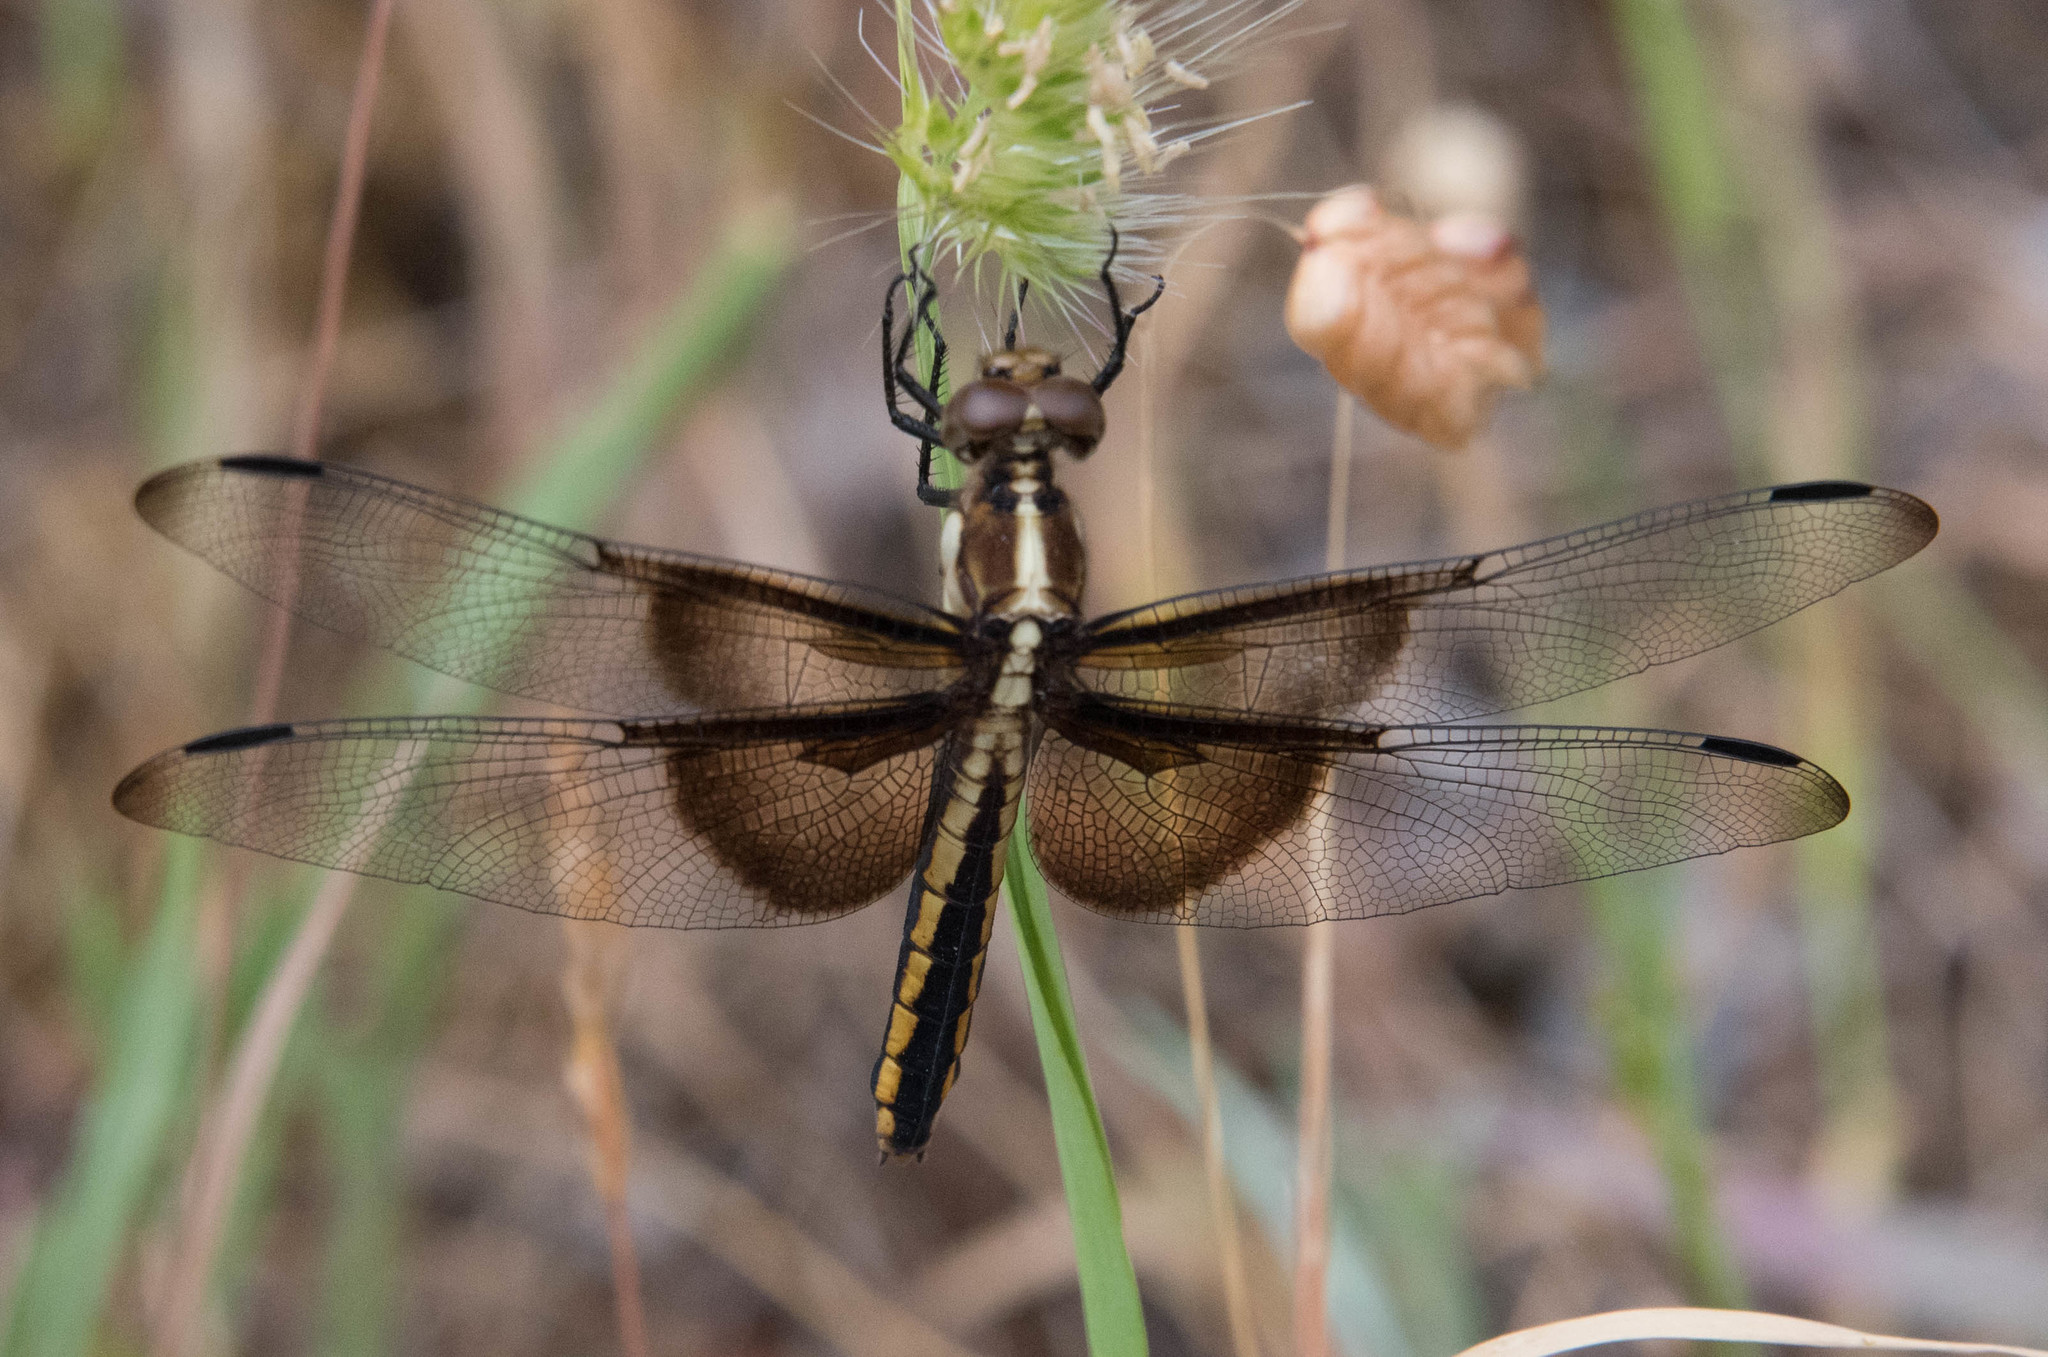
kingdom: Animalia
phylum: Arthropoda
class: Insecta
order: Odonata
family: Libellulidae
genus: Libellula
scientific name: Libellula luctuosa
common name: Widow skimmer
